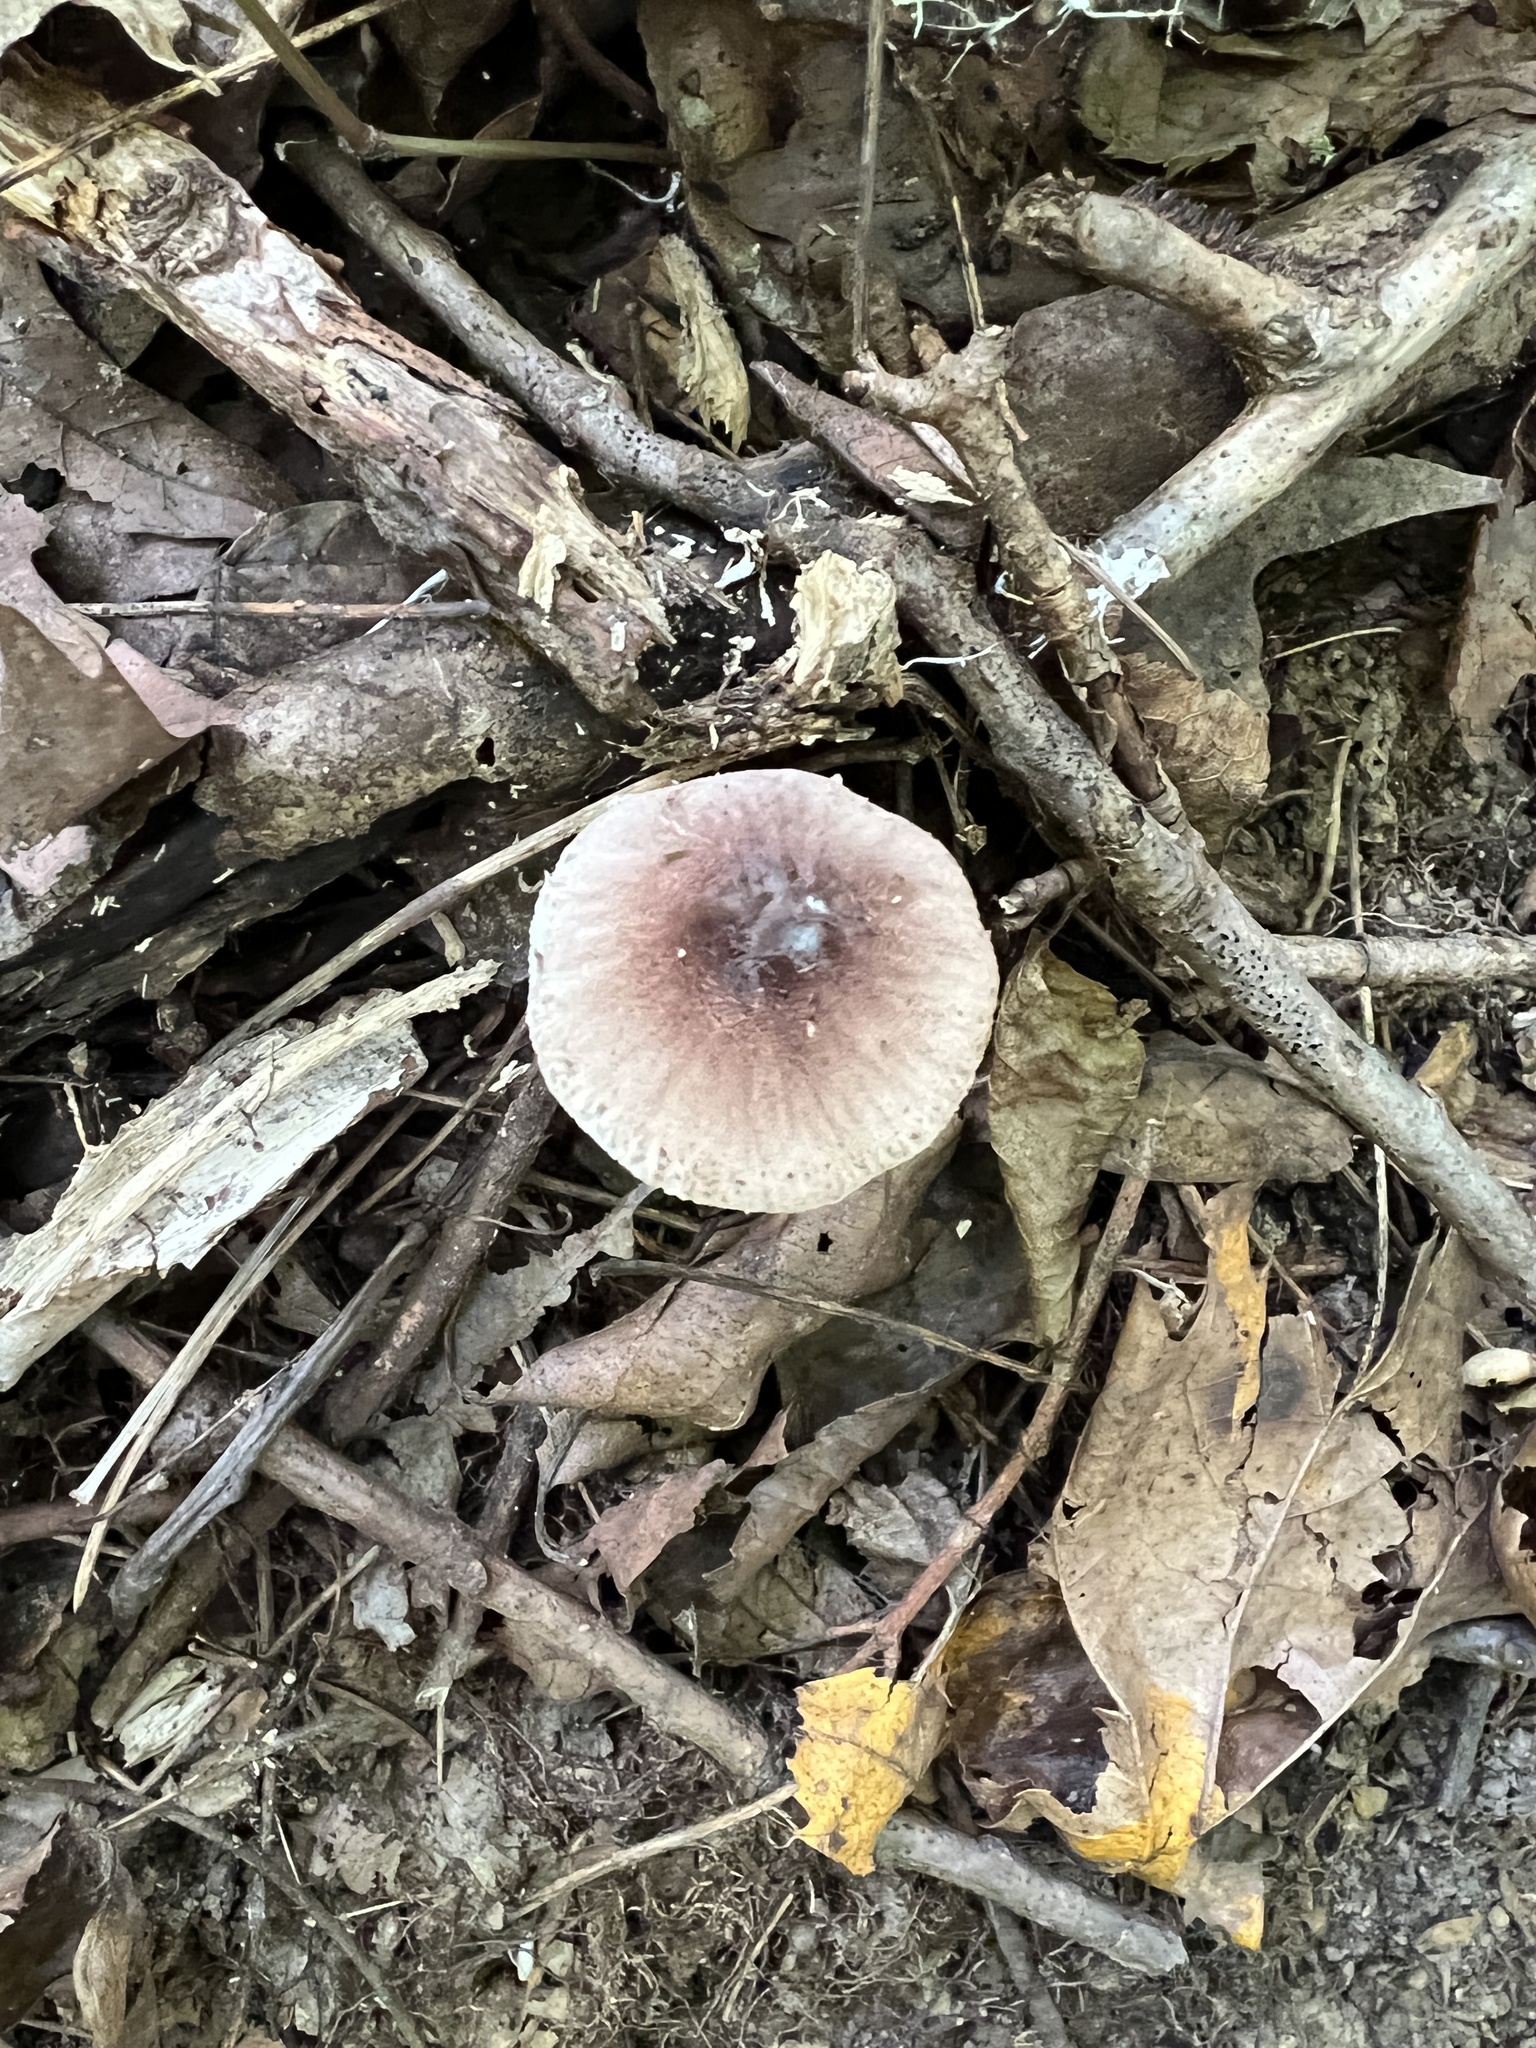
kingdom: Fungi
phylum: Basidiomycota
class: Agaricomycetes
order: Agaricales
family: Agaricaceae
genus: Leucoagaricus
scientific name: Leucoagaricus rubrotinctus
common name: Ruby dapperling
